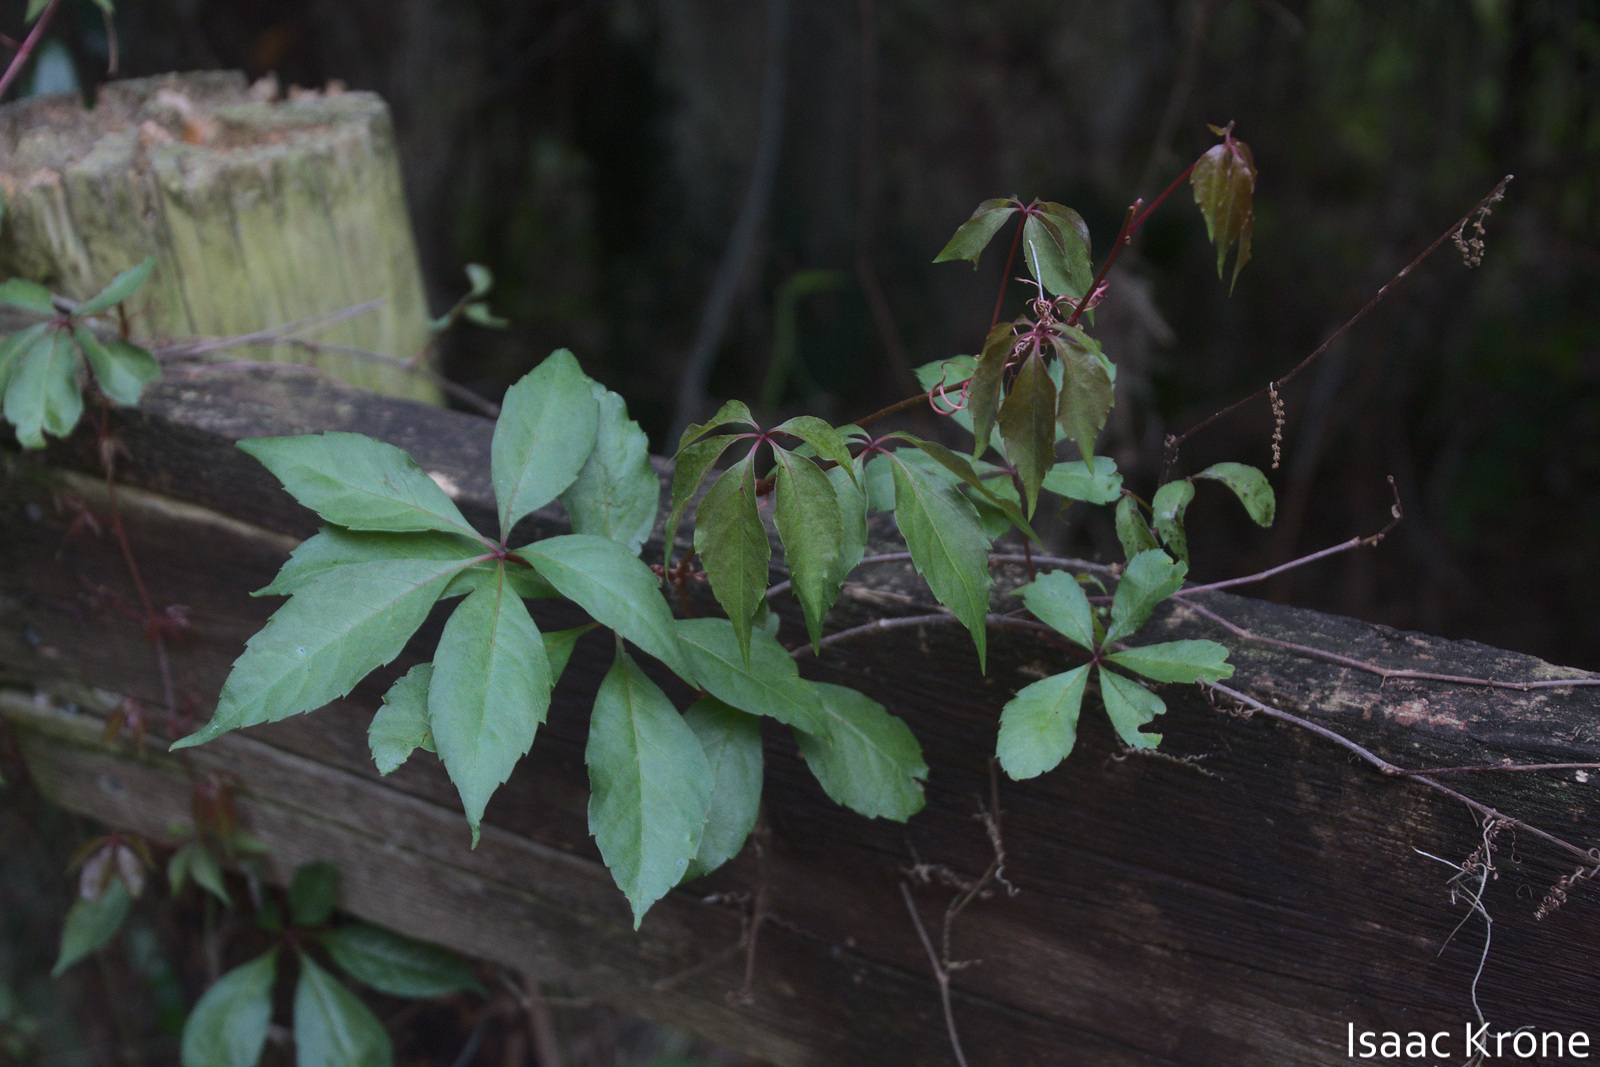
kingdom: Plantae
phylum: Tracheophyta
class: Magnoliopsida
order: Vitales
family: Vitaceae
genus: Parthenocissus
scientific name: Parthenocissus quinquefolia
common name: Virginia-creeper
